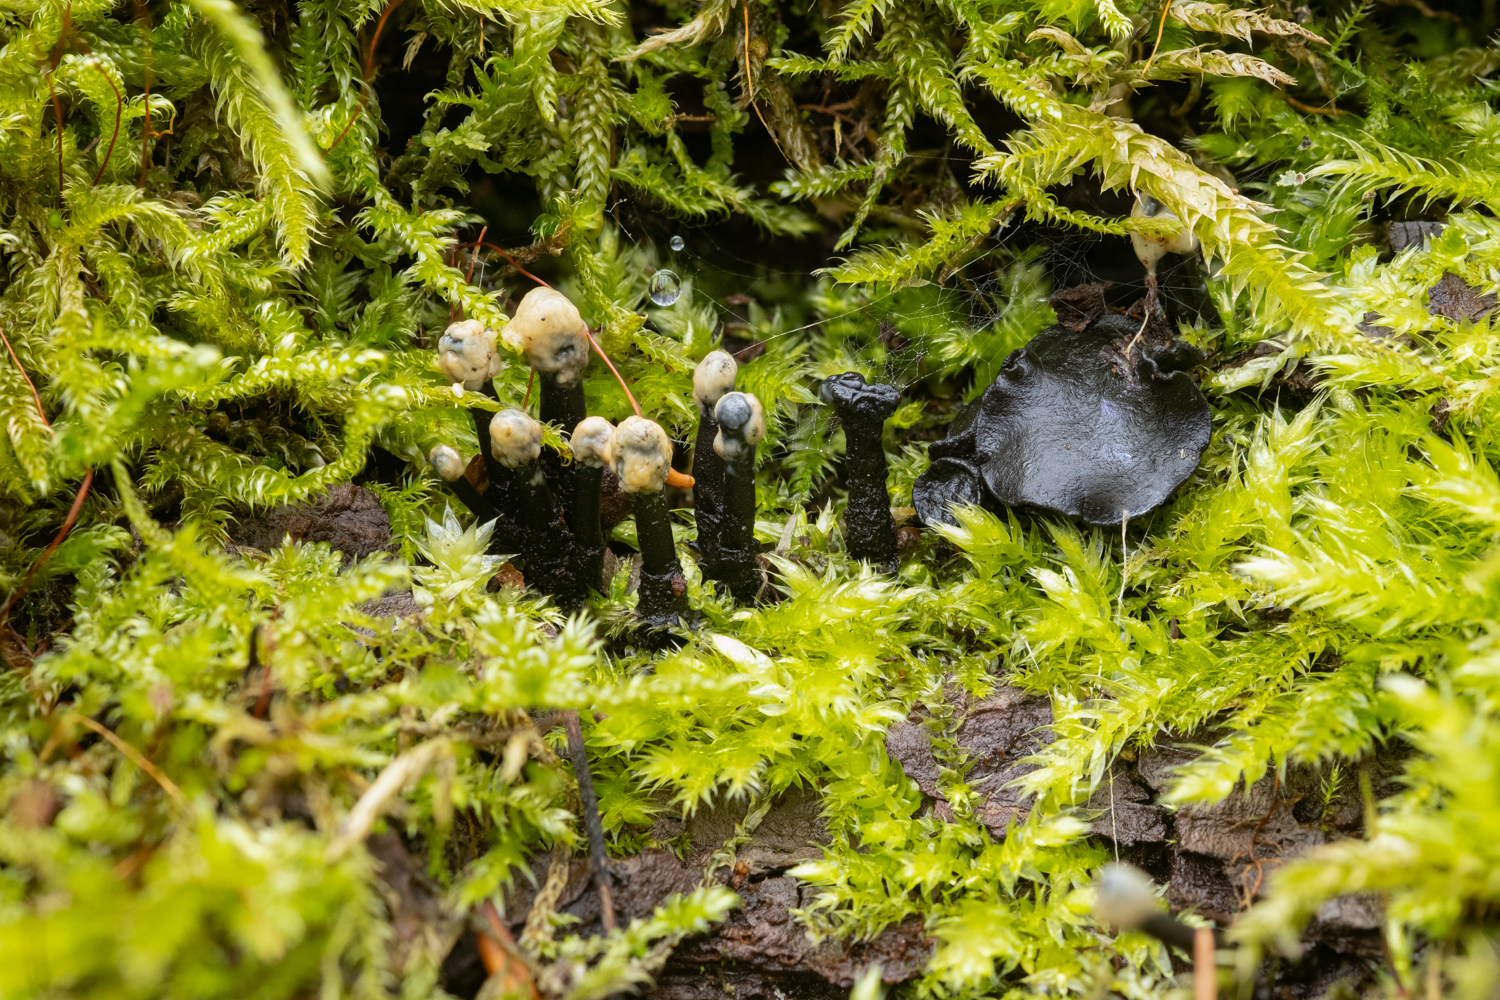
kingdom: Fungi
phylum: Ascomycota
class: Leotiomycetes
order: Helotiales
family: Bulgariaceae
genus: Holwaya
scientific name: Holwaya mucida
